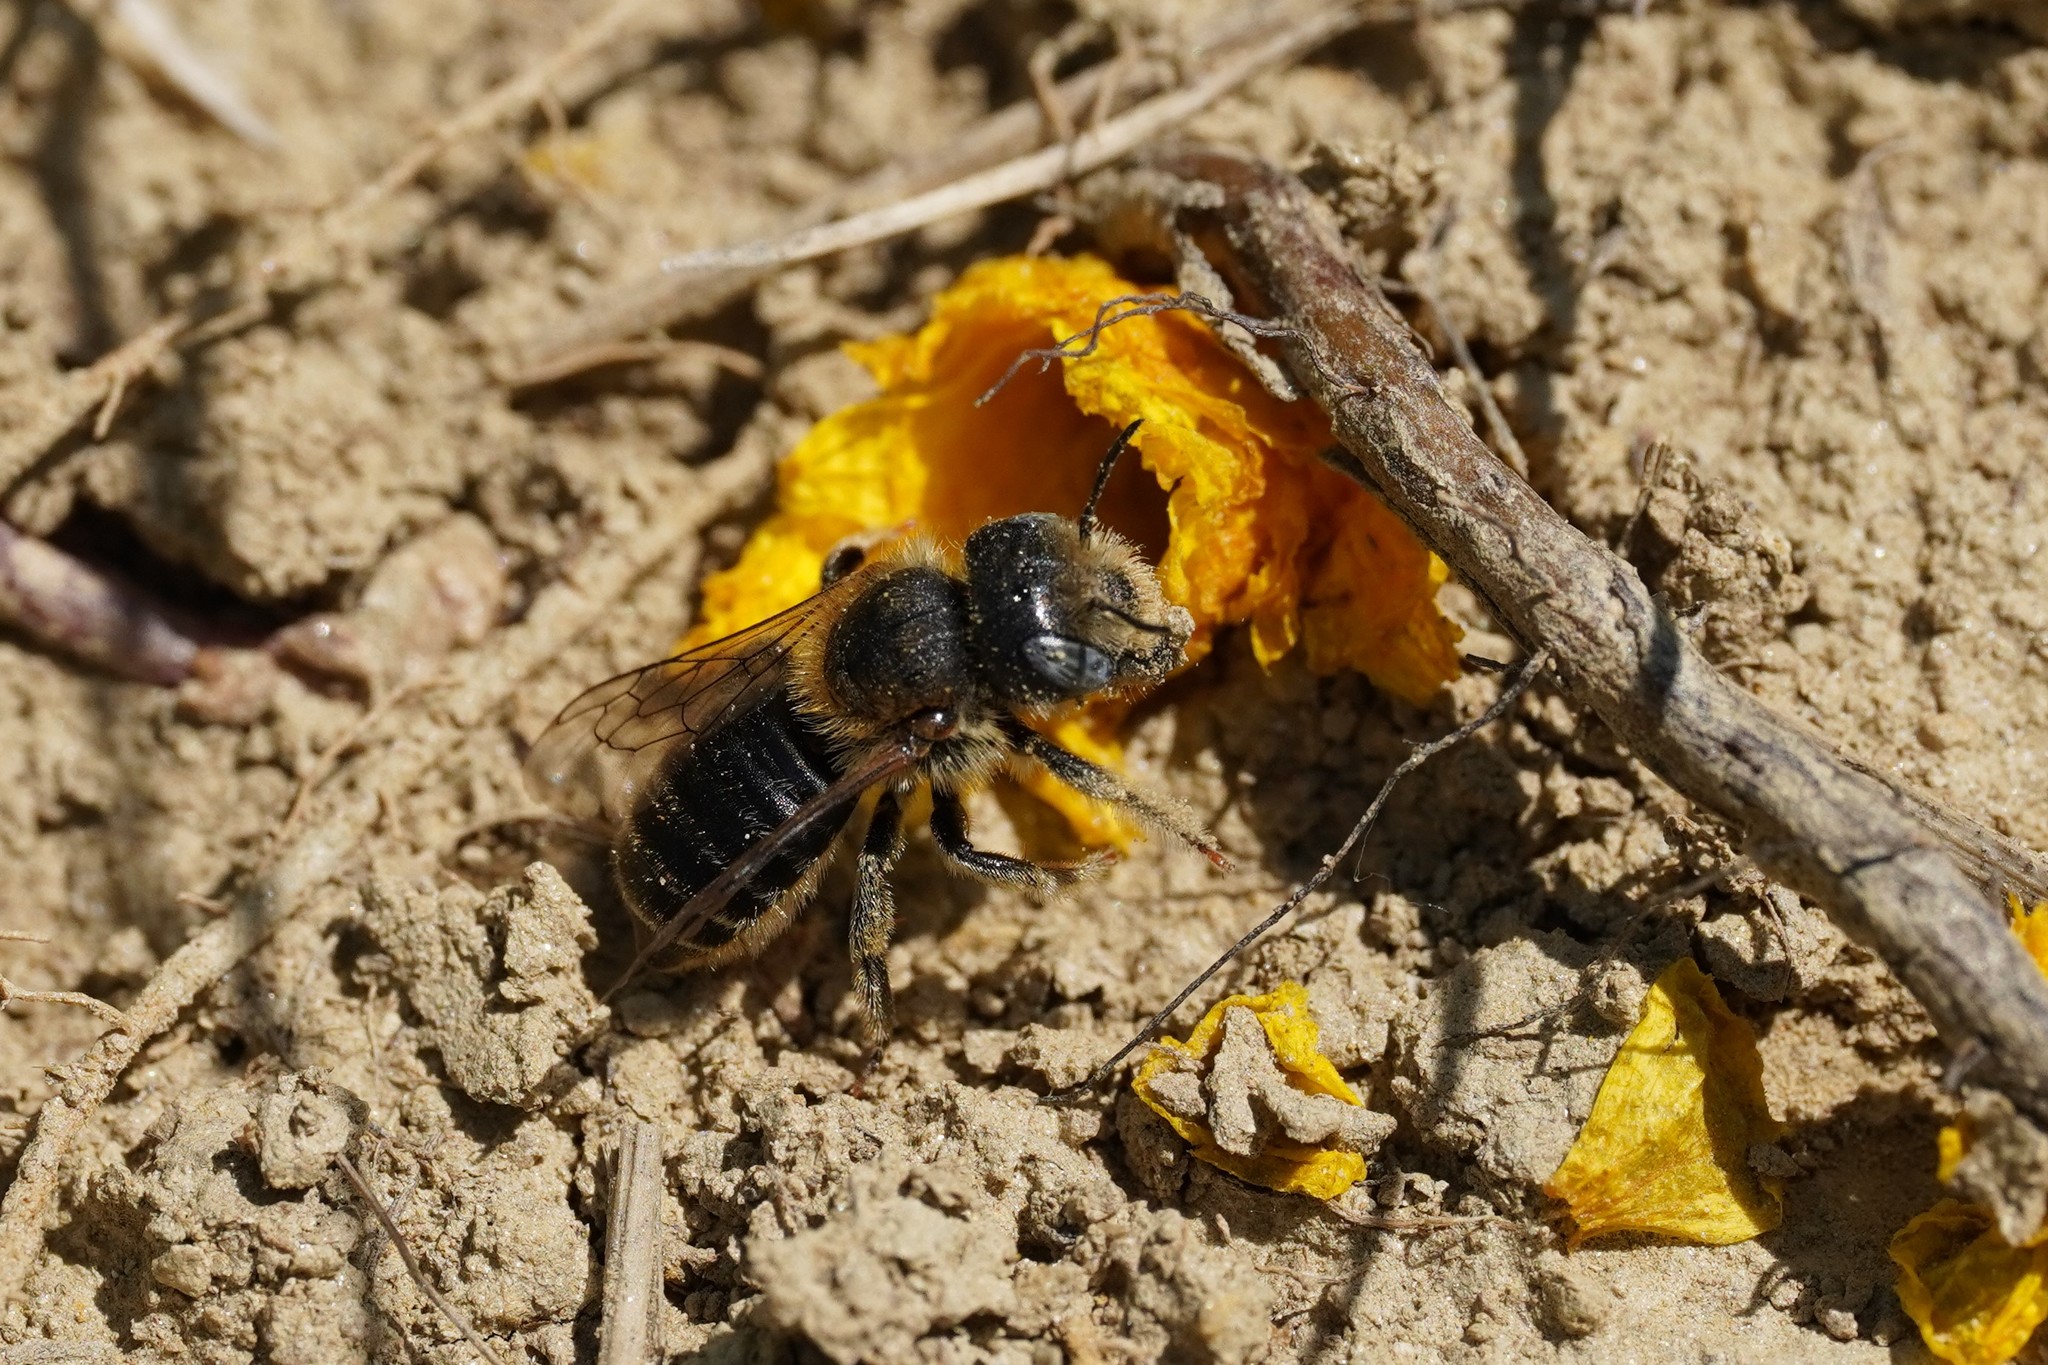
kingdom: Animalia
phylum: Arthropoda
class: Insecta
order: Hymenoptera
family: Megachilidae
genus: Hoplitis
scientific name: Hoplitis mocsaryi
